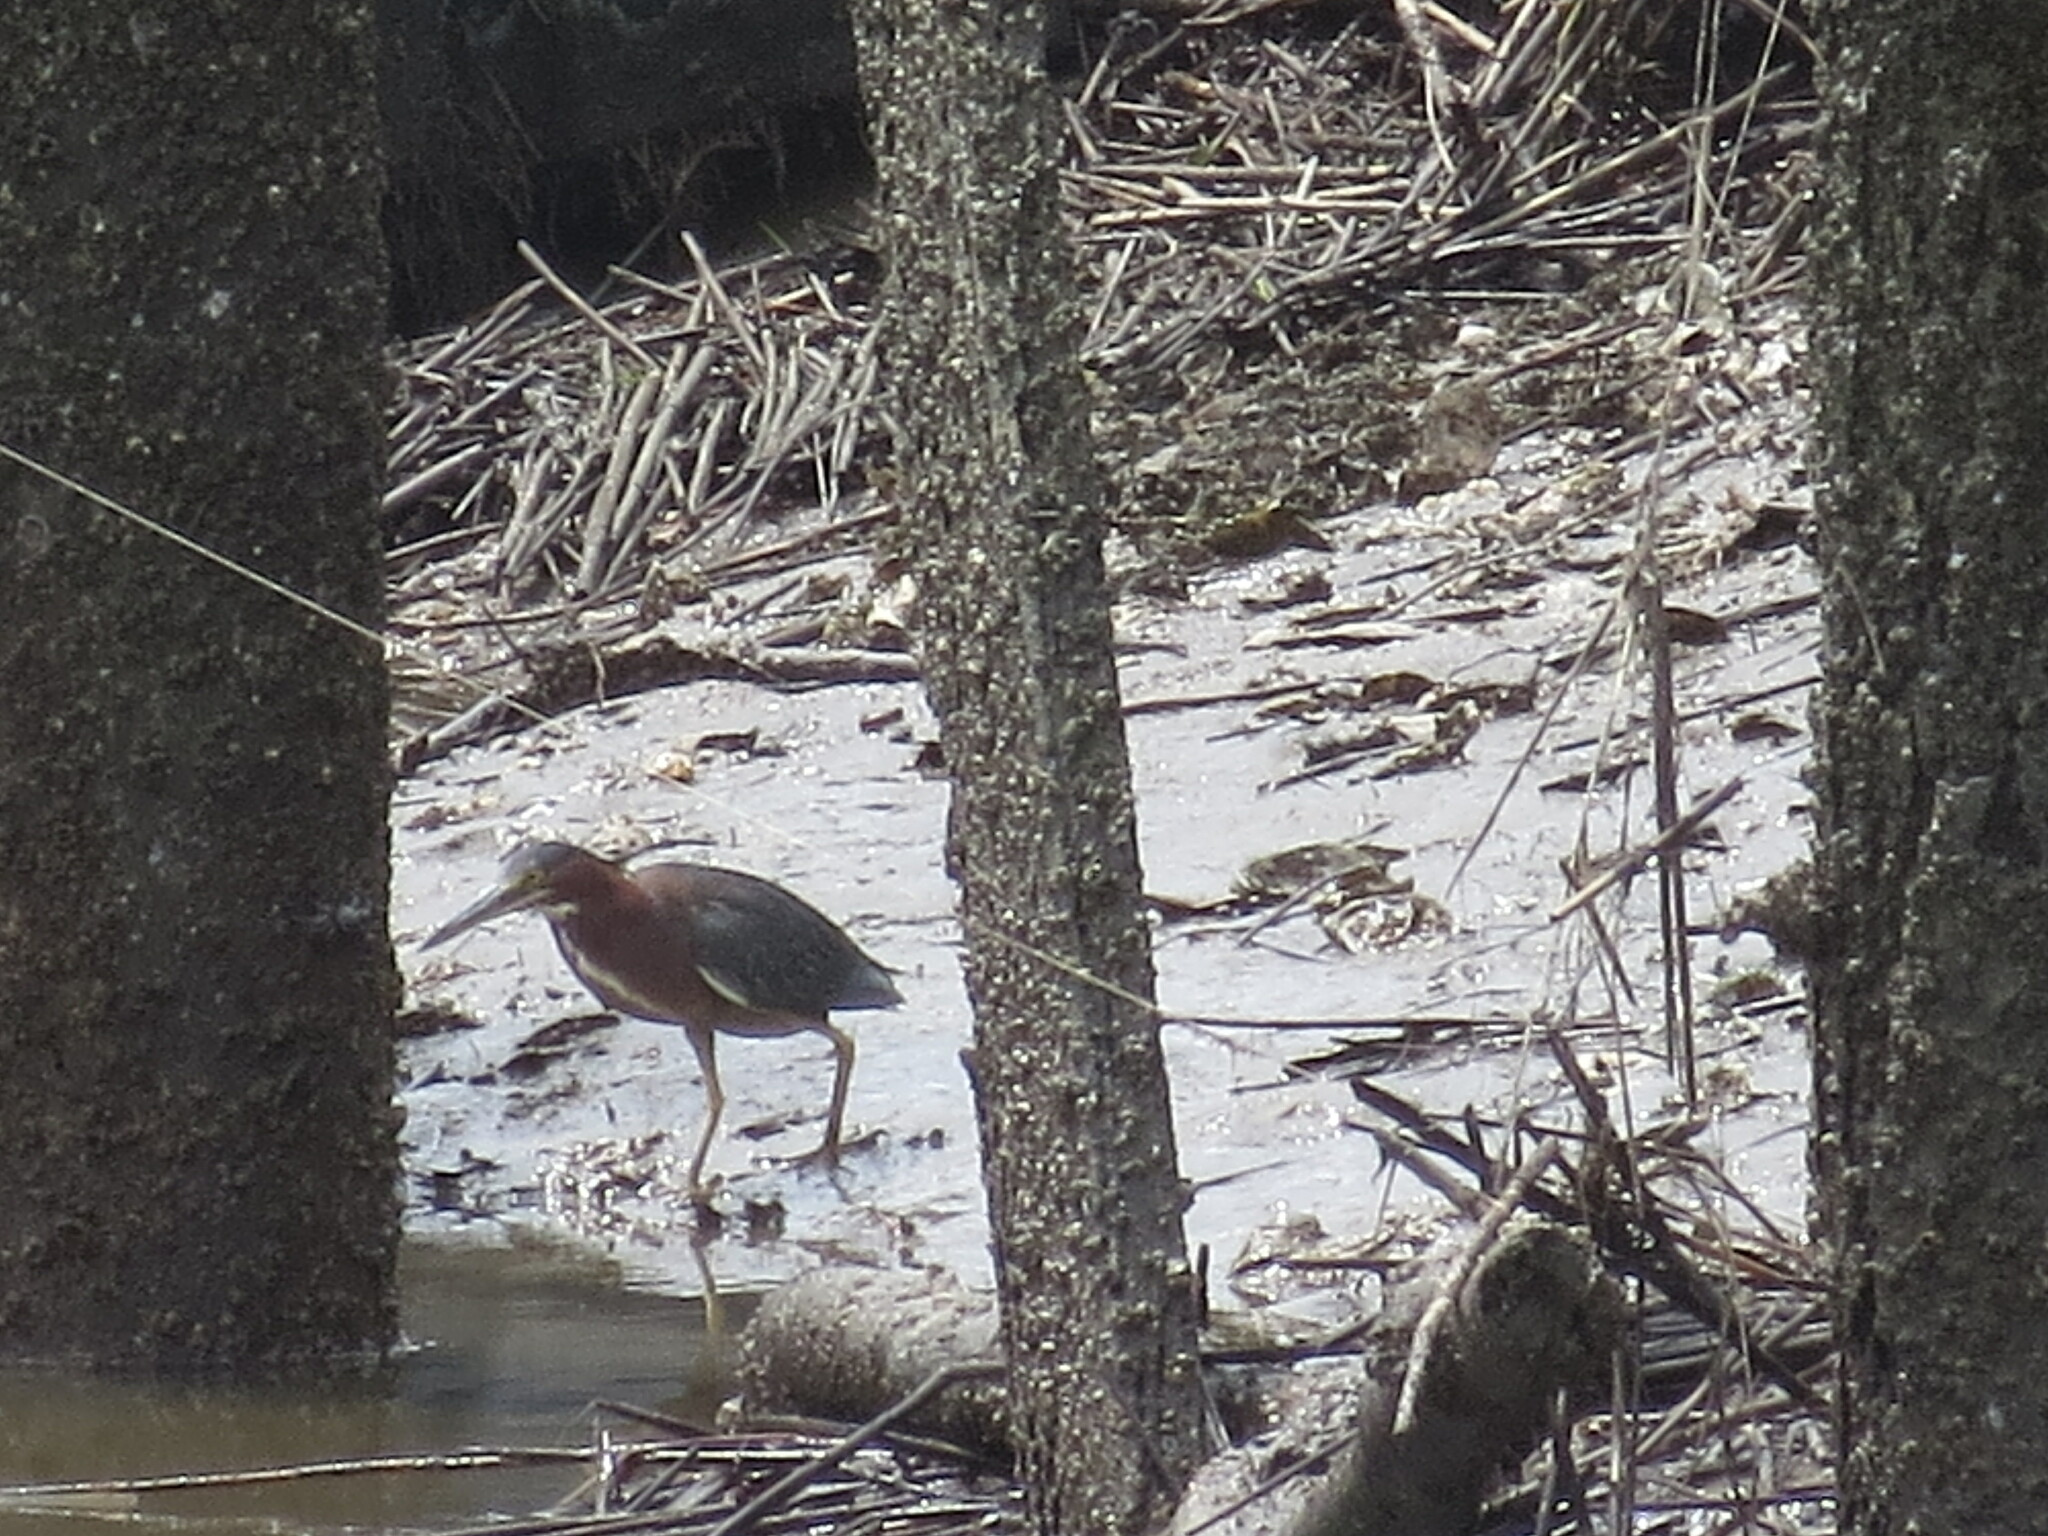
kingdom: Animalia
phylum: Chordata
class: Aves
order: Pelecaniformes
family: Ardeidae
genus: Butorides
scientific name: Butorides virescens
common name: Green heron
